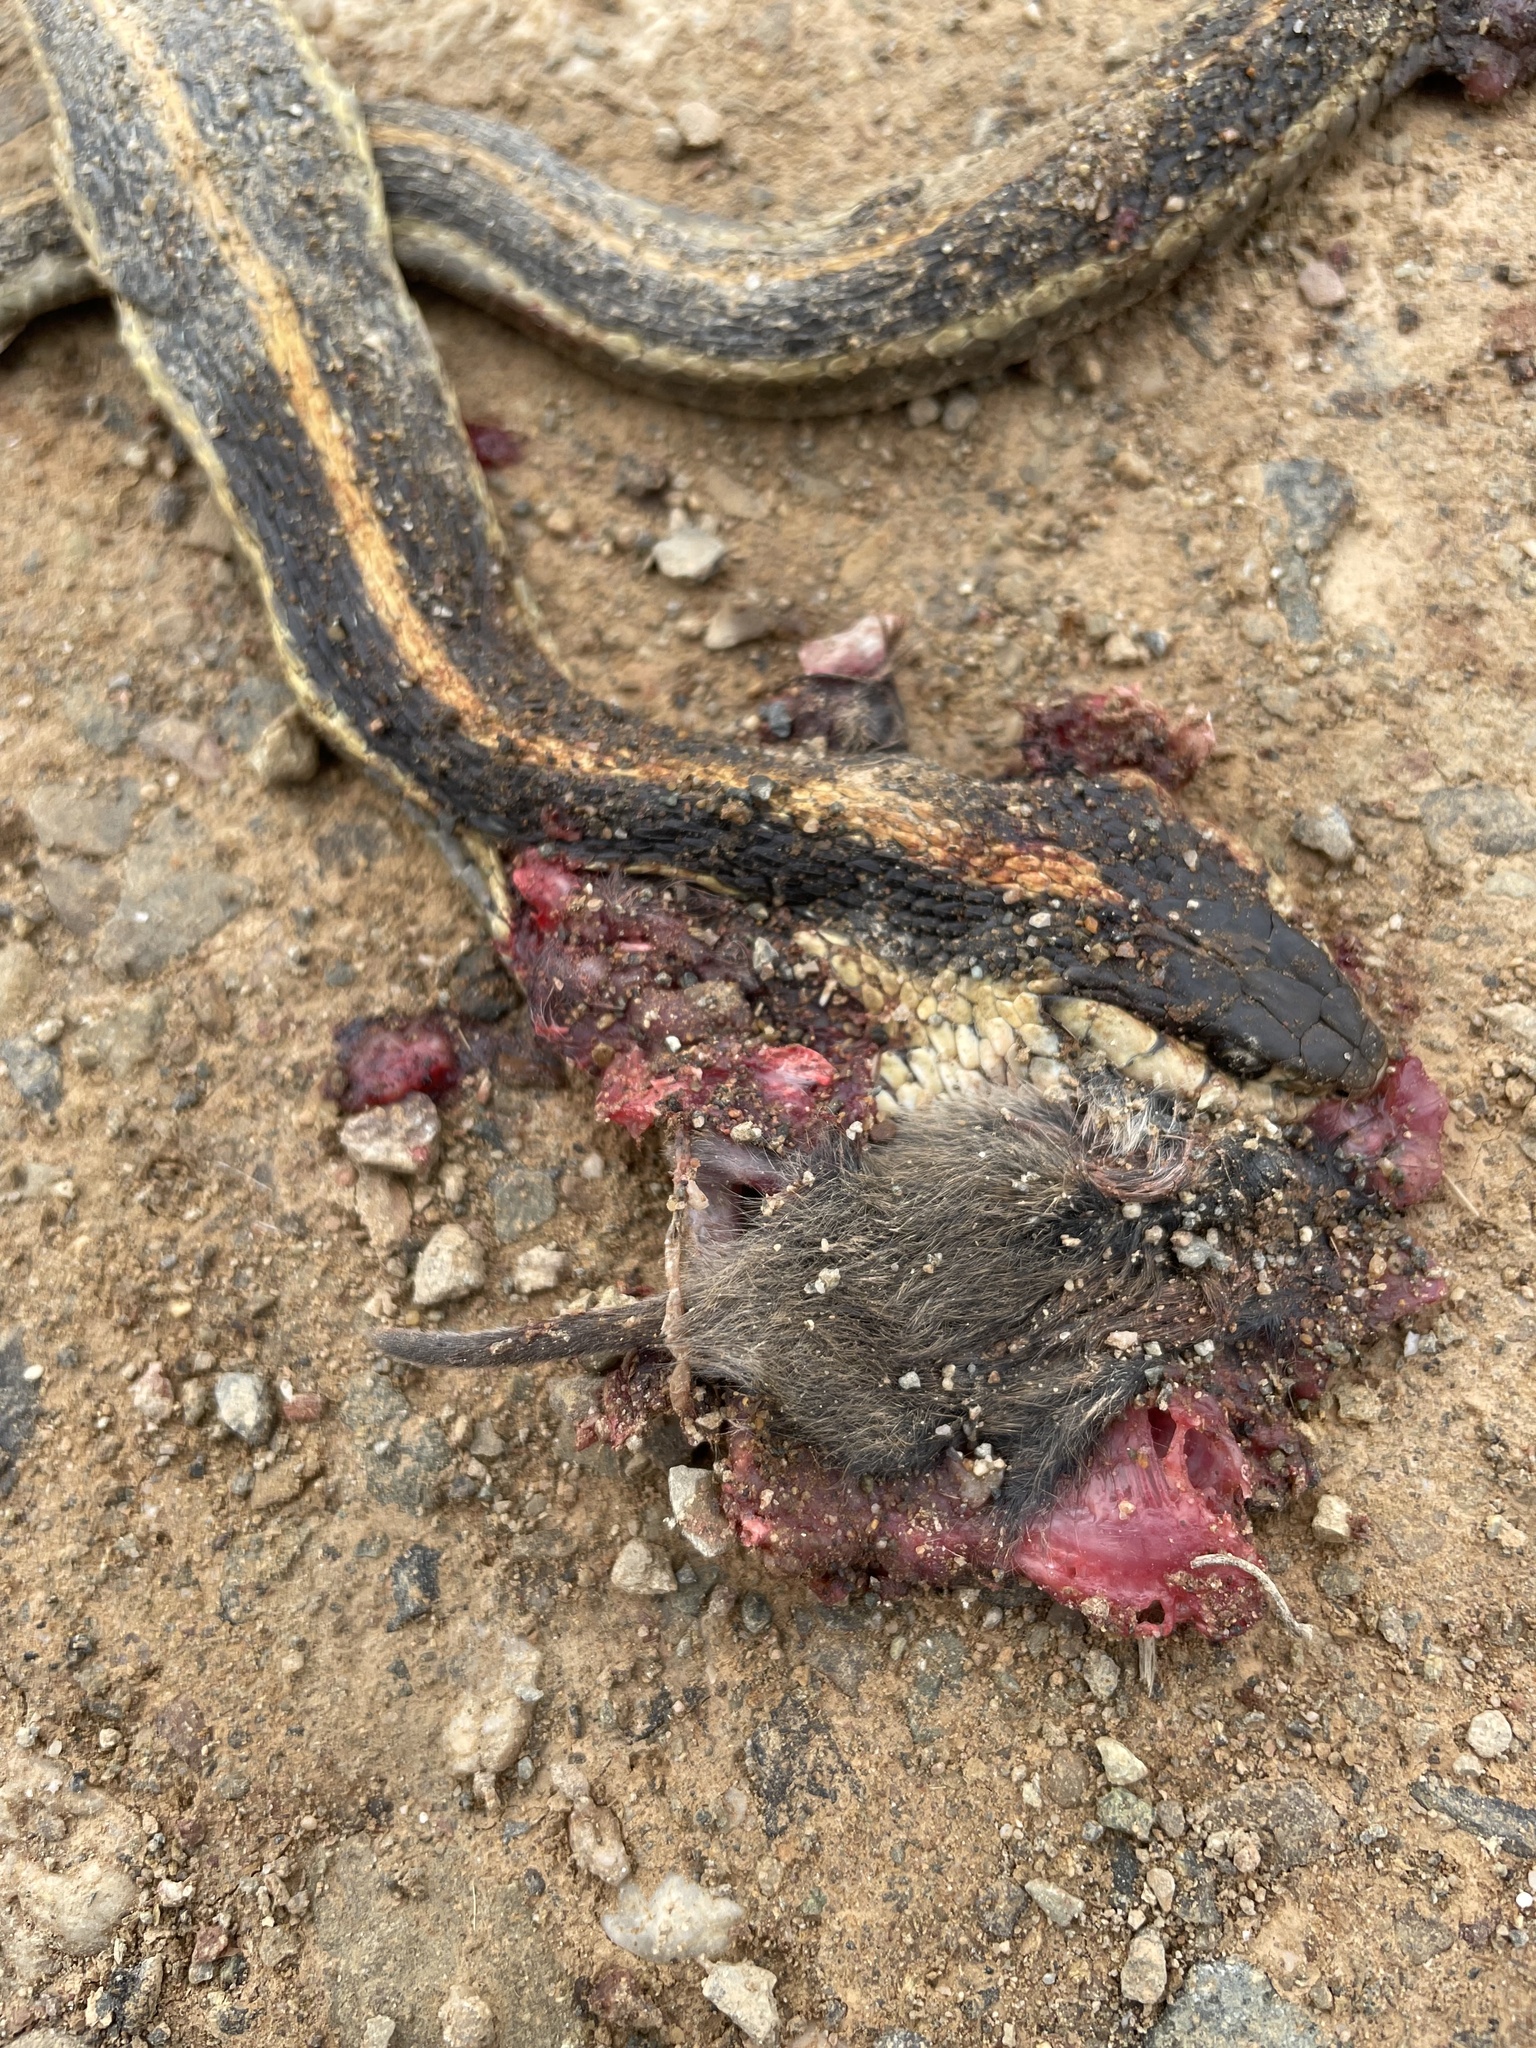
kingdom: Animalia
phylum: Chordata
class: Squamata
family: Colubridae
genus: Thamnophis
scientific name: Thamnophis elegans
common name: Western terrestrial garter snake
